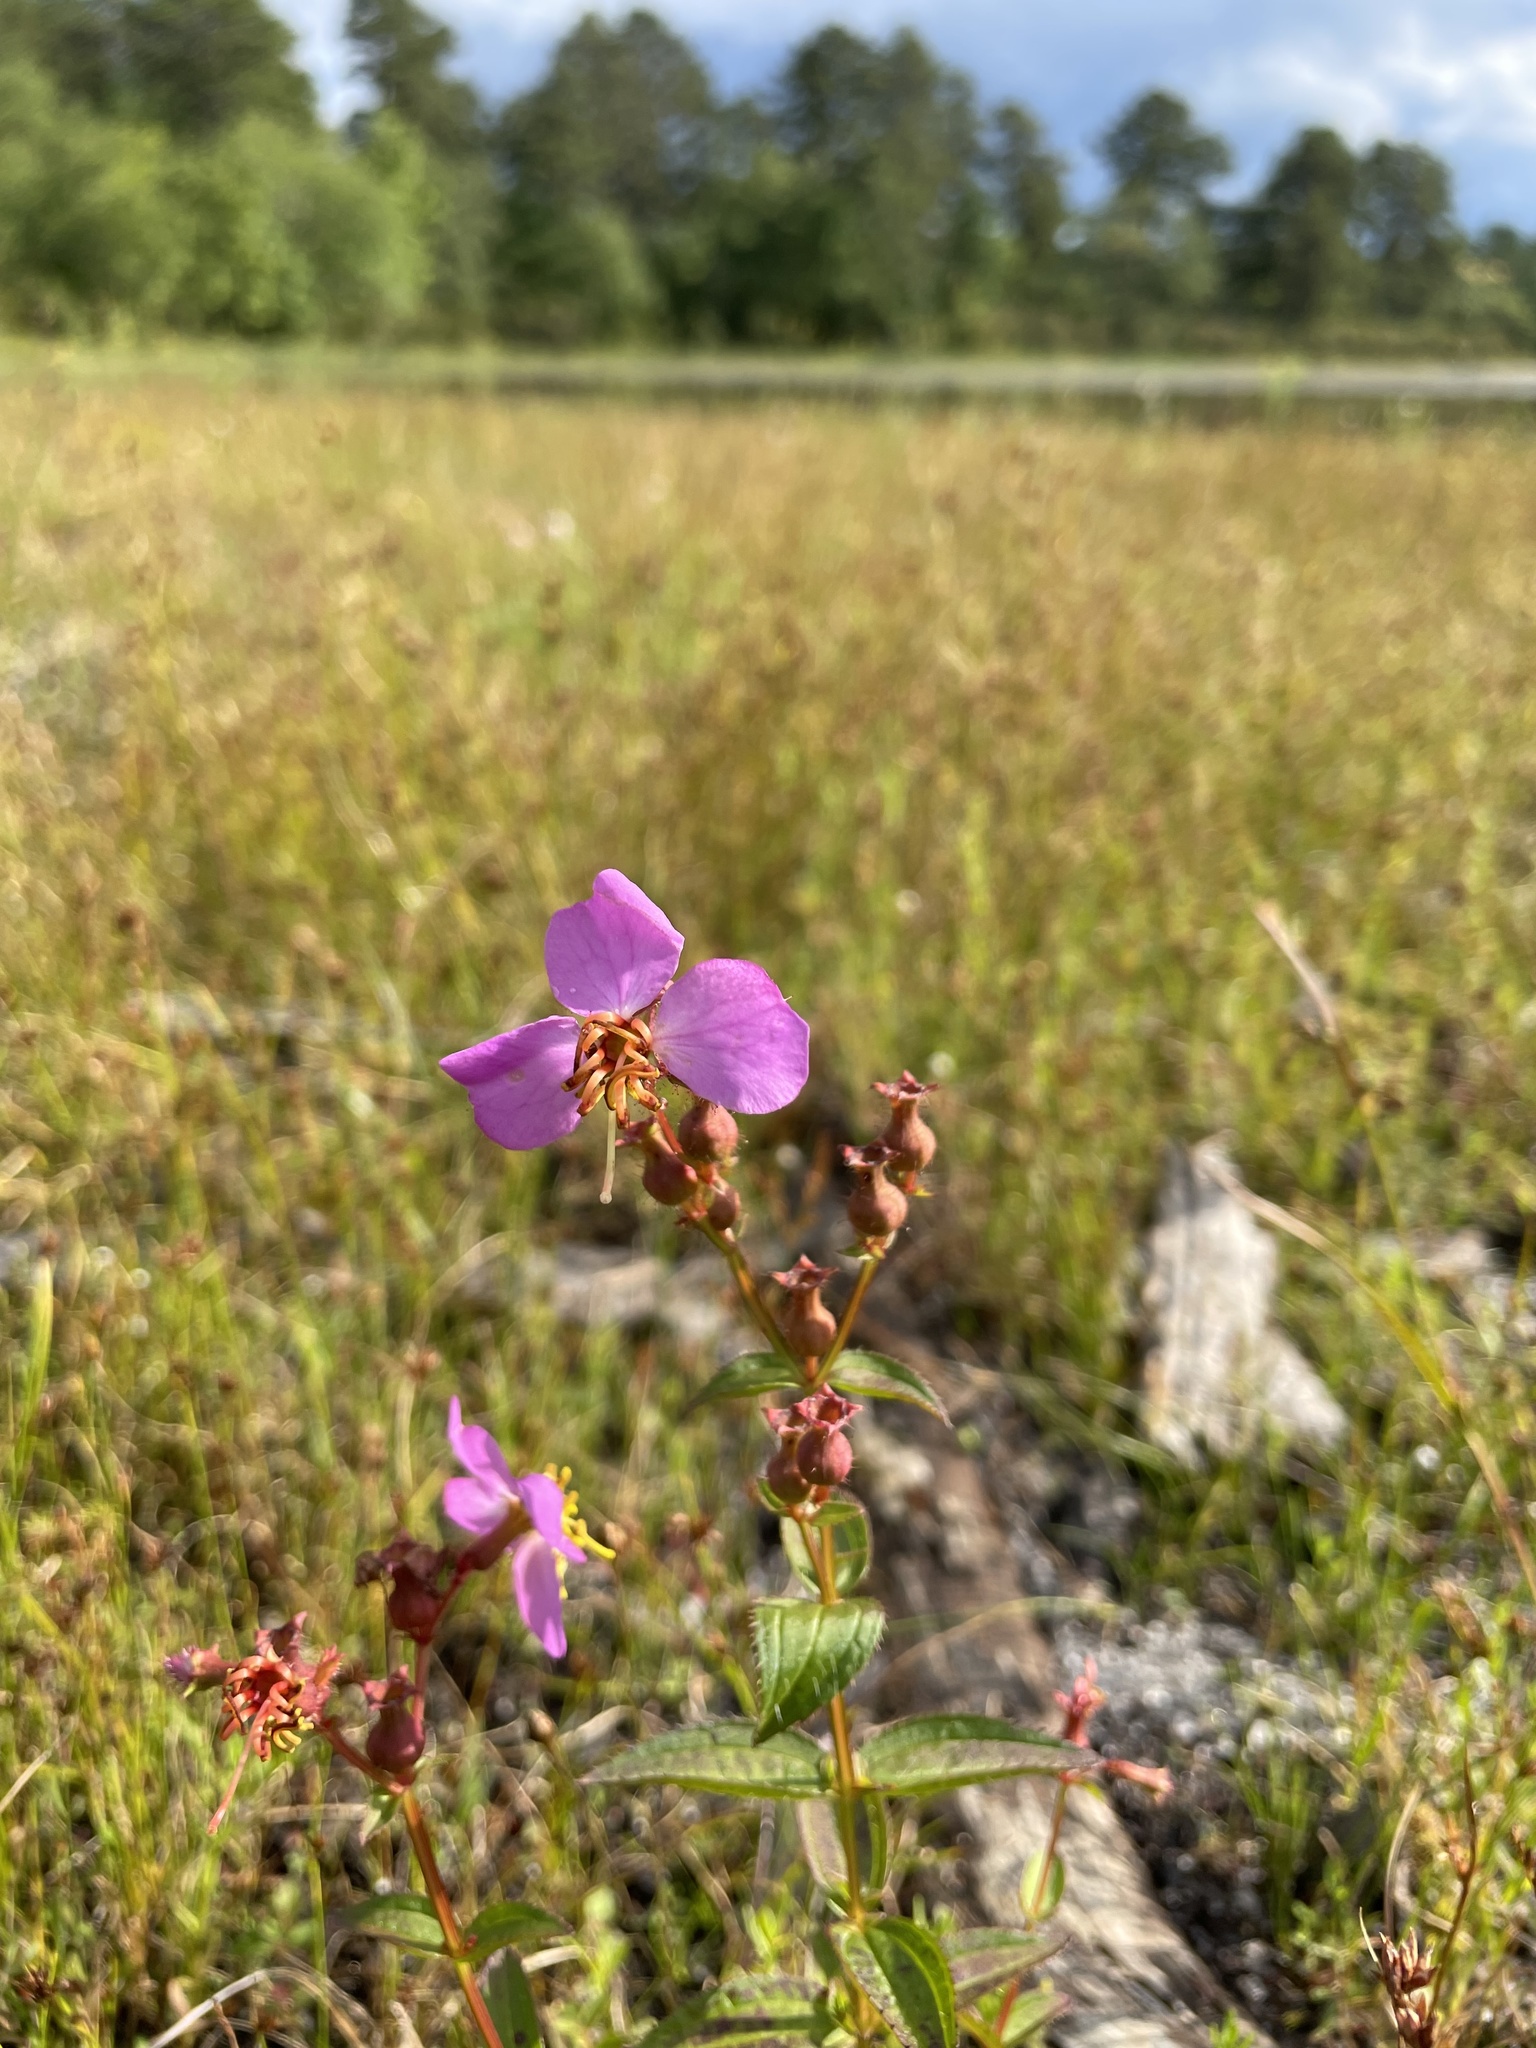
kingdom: Plantae
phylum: Tracheophyta
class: Magnoliopsida
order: Myrtales
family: Melastomataceae
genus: Rhexia
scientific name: Rhexia virginica
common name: Common meadow beauty
